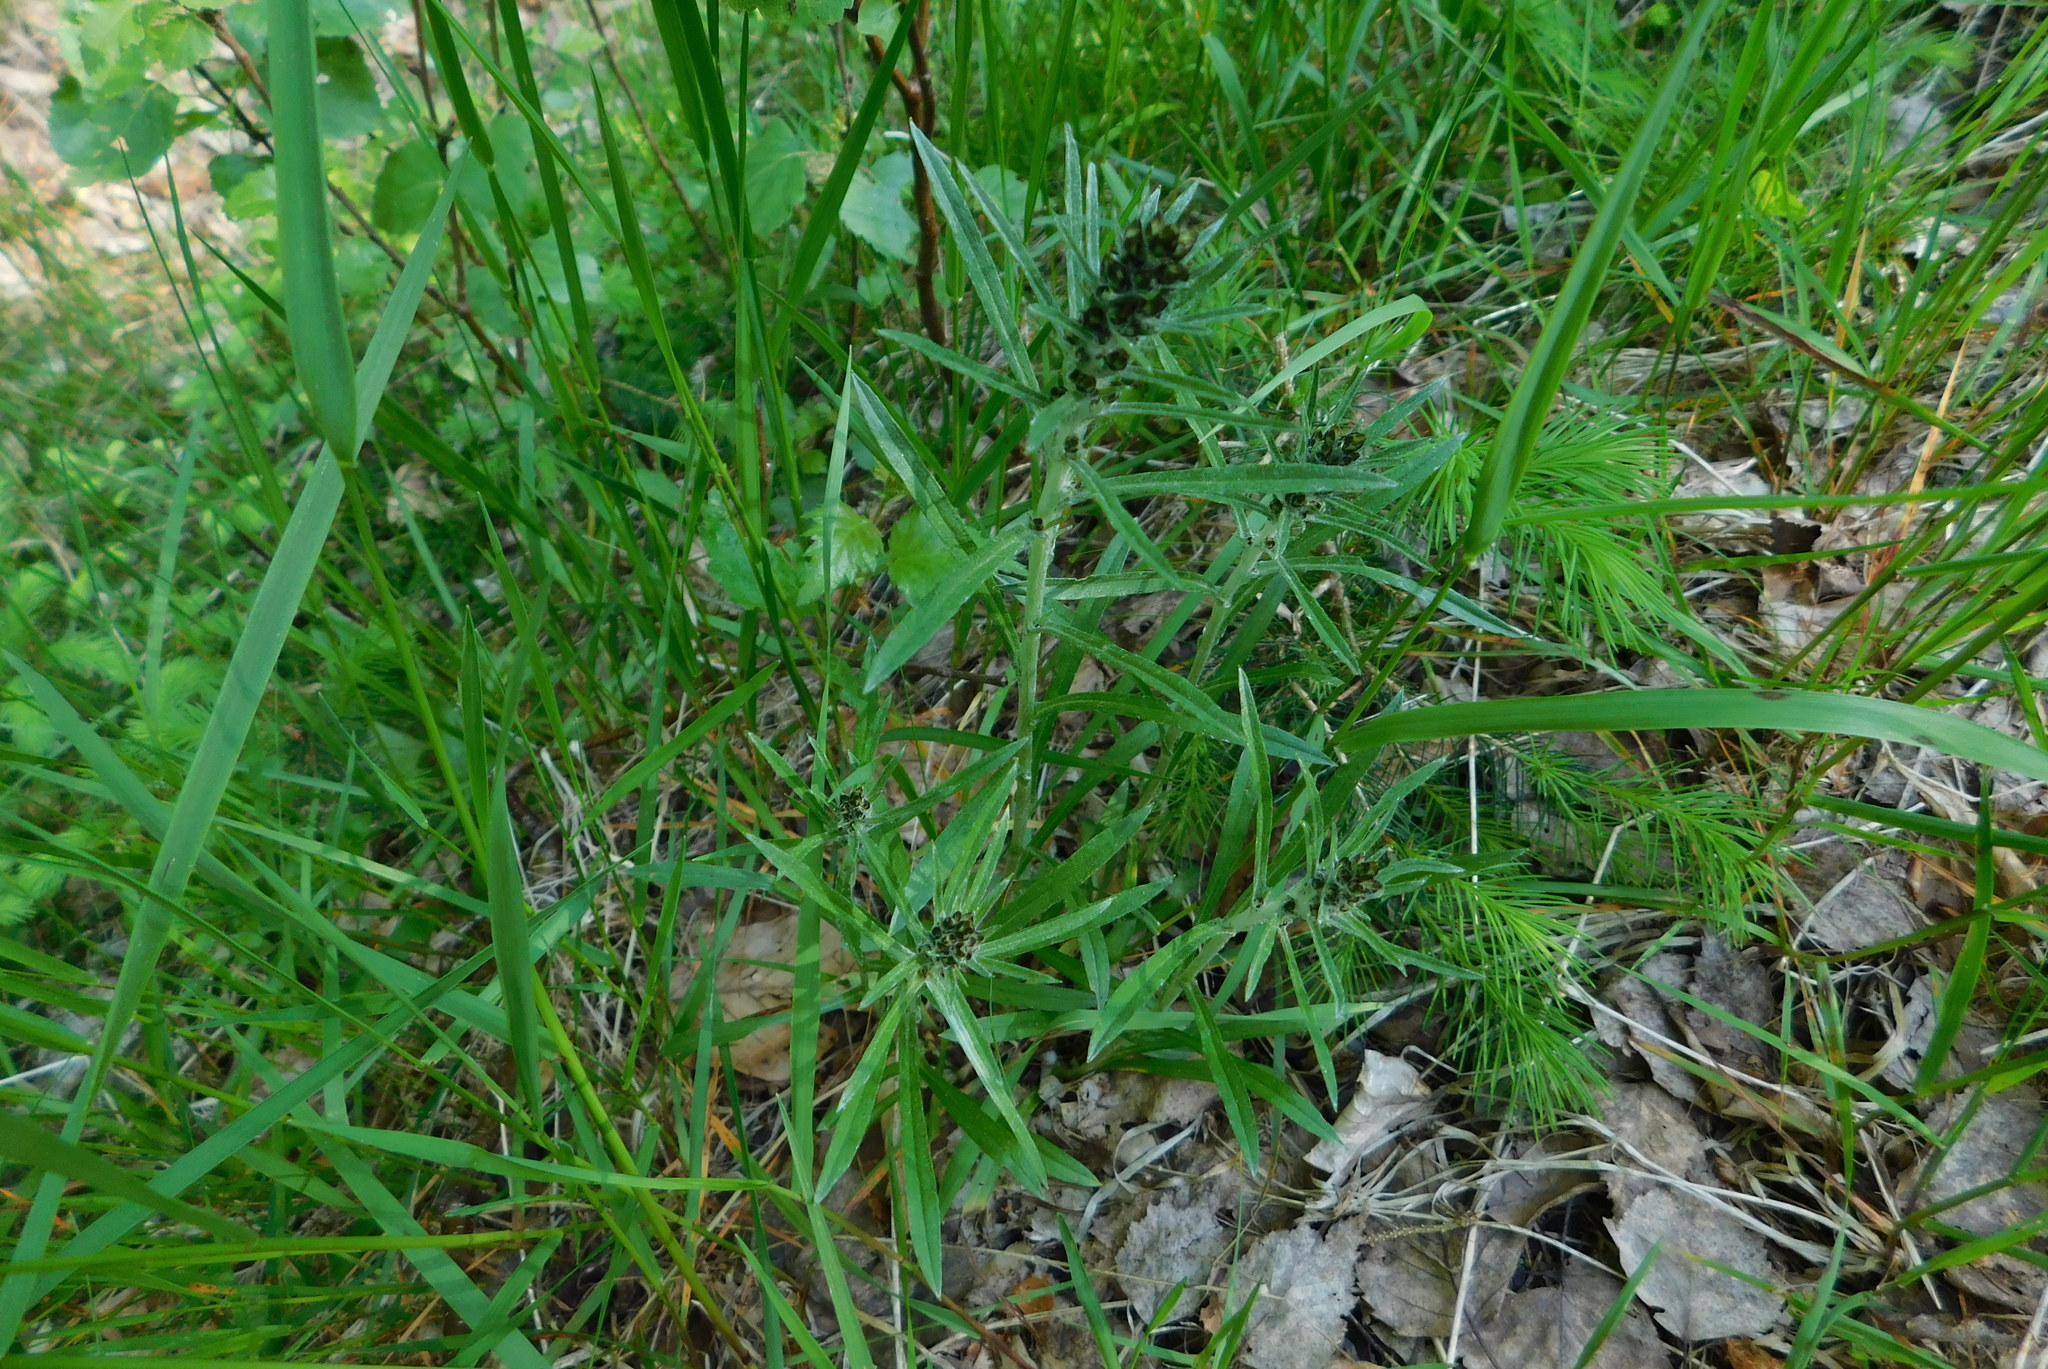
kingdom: Plantae
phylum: Tracheophyta
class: Magnoliopsida
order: Asterales
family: Asteraceae
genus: Omalotheca
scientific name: Omalotheca sylvatica
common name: Heath cudweed
